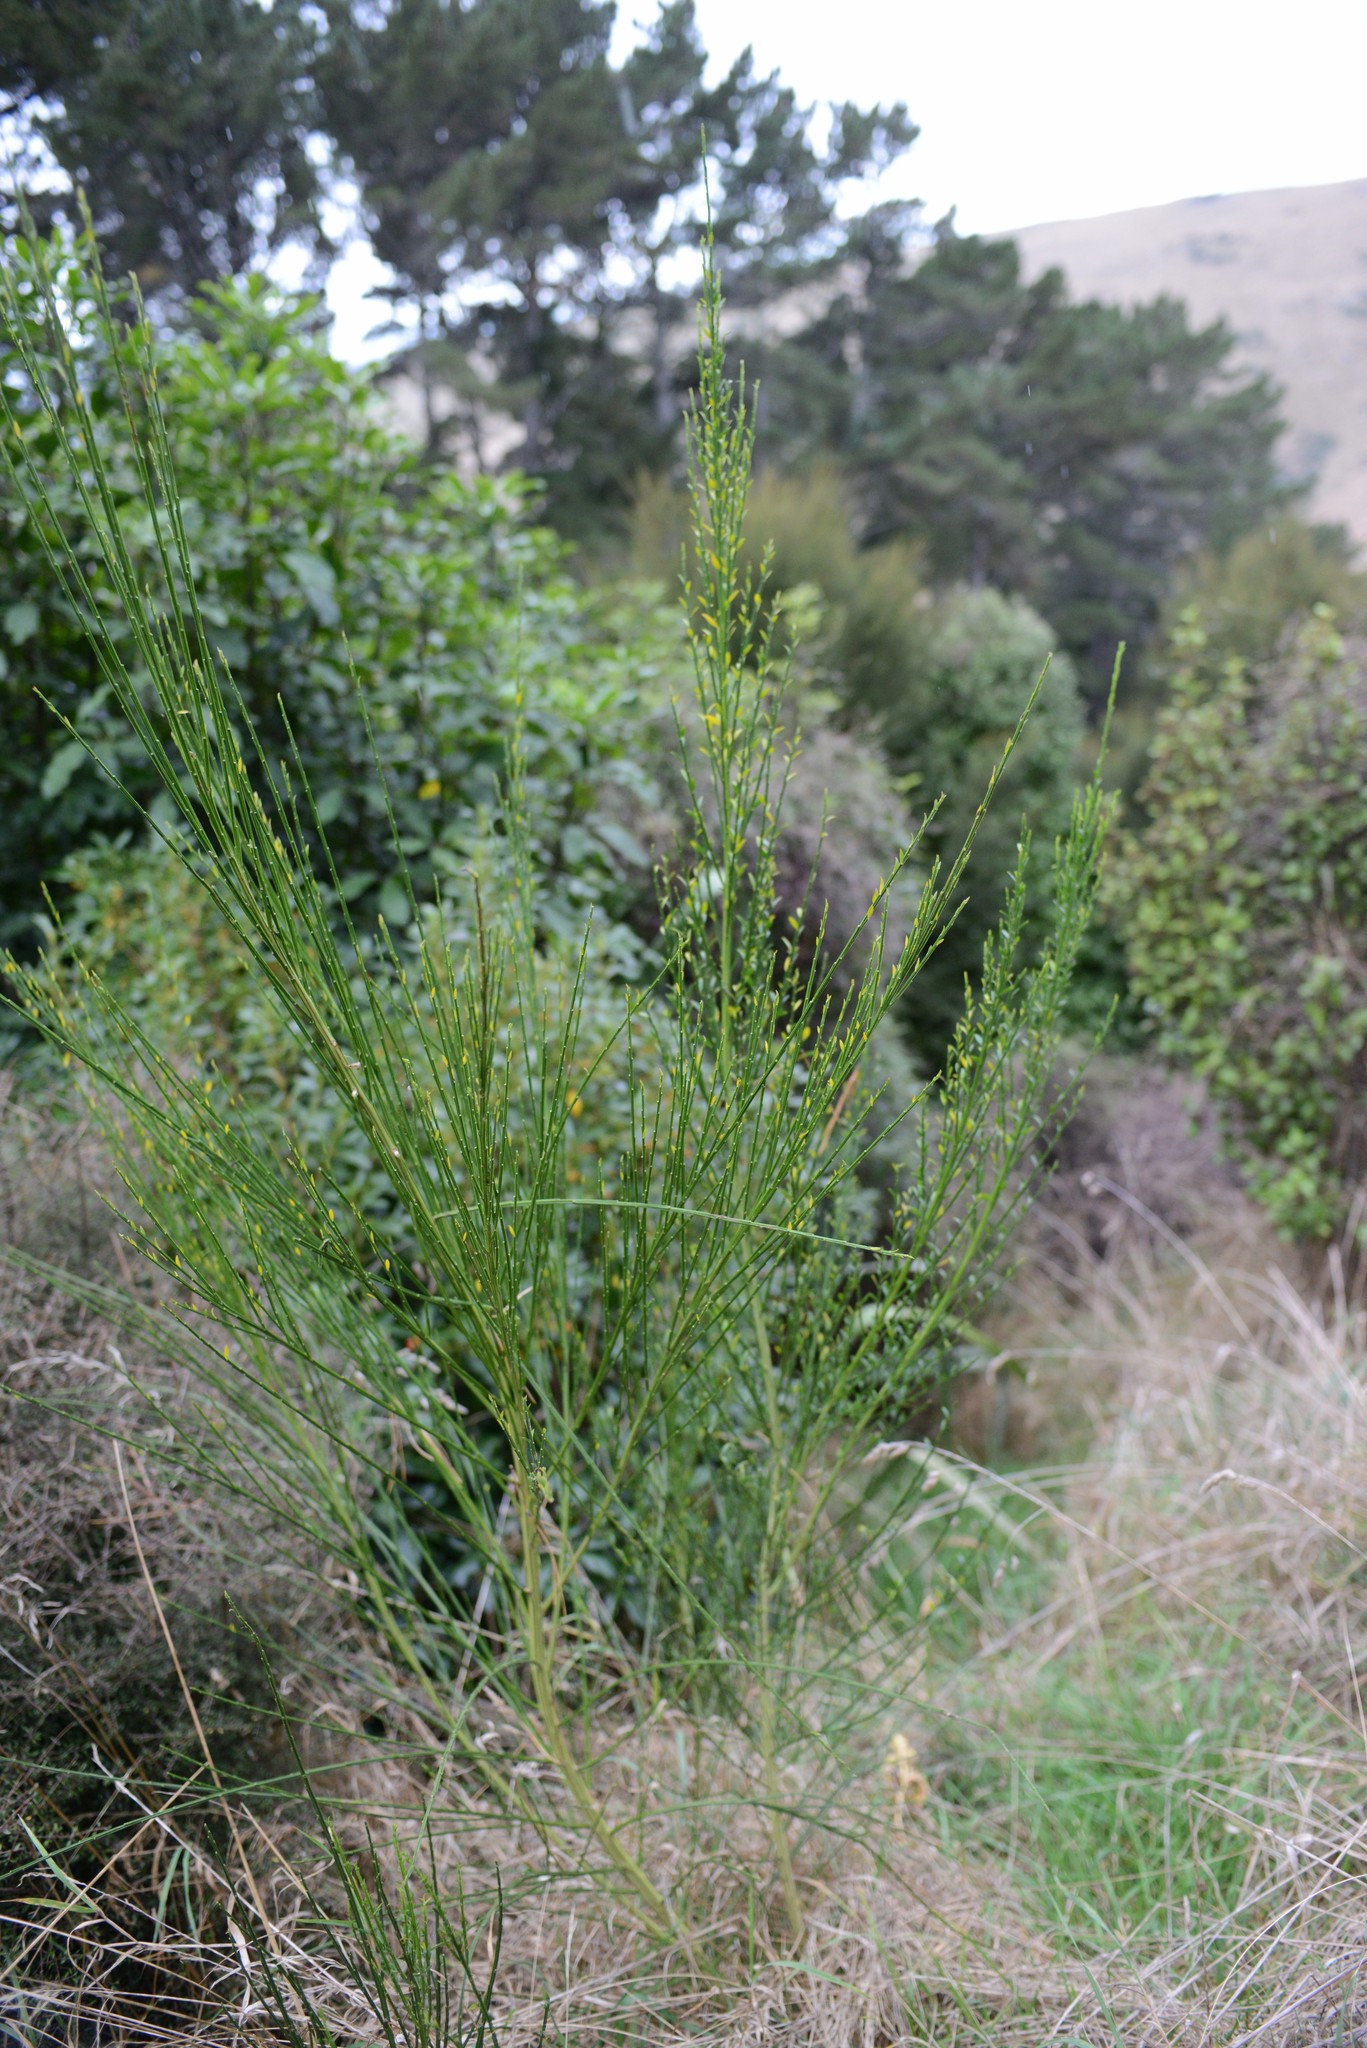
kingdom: Plantae
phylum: Tracheophyta
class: Magnoliopsida
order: Fabales
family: Fabaceae
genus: Cytisus
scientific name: Cytisus scoparius
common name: Scotch broom
